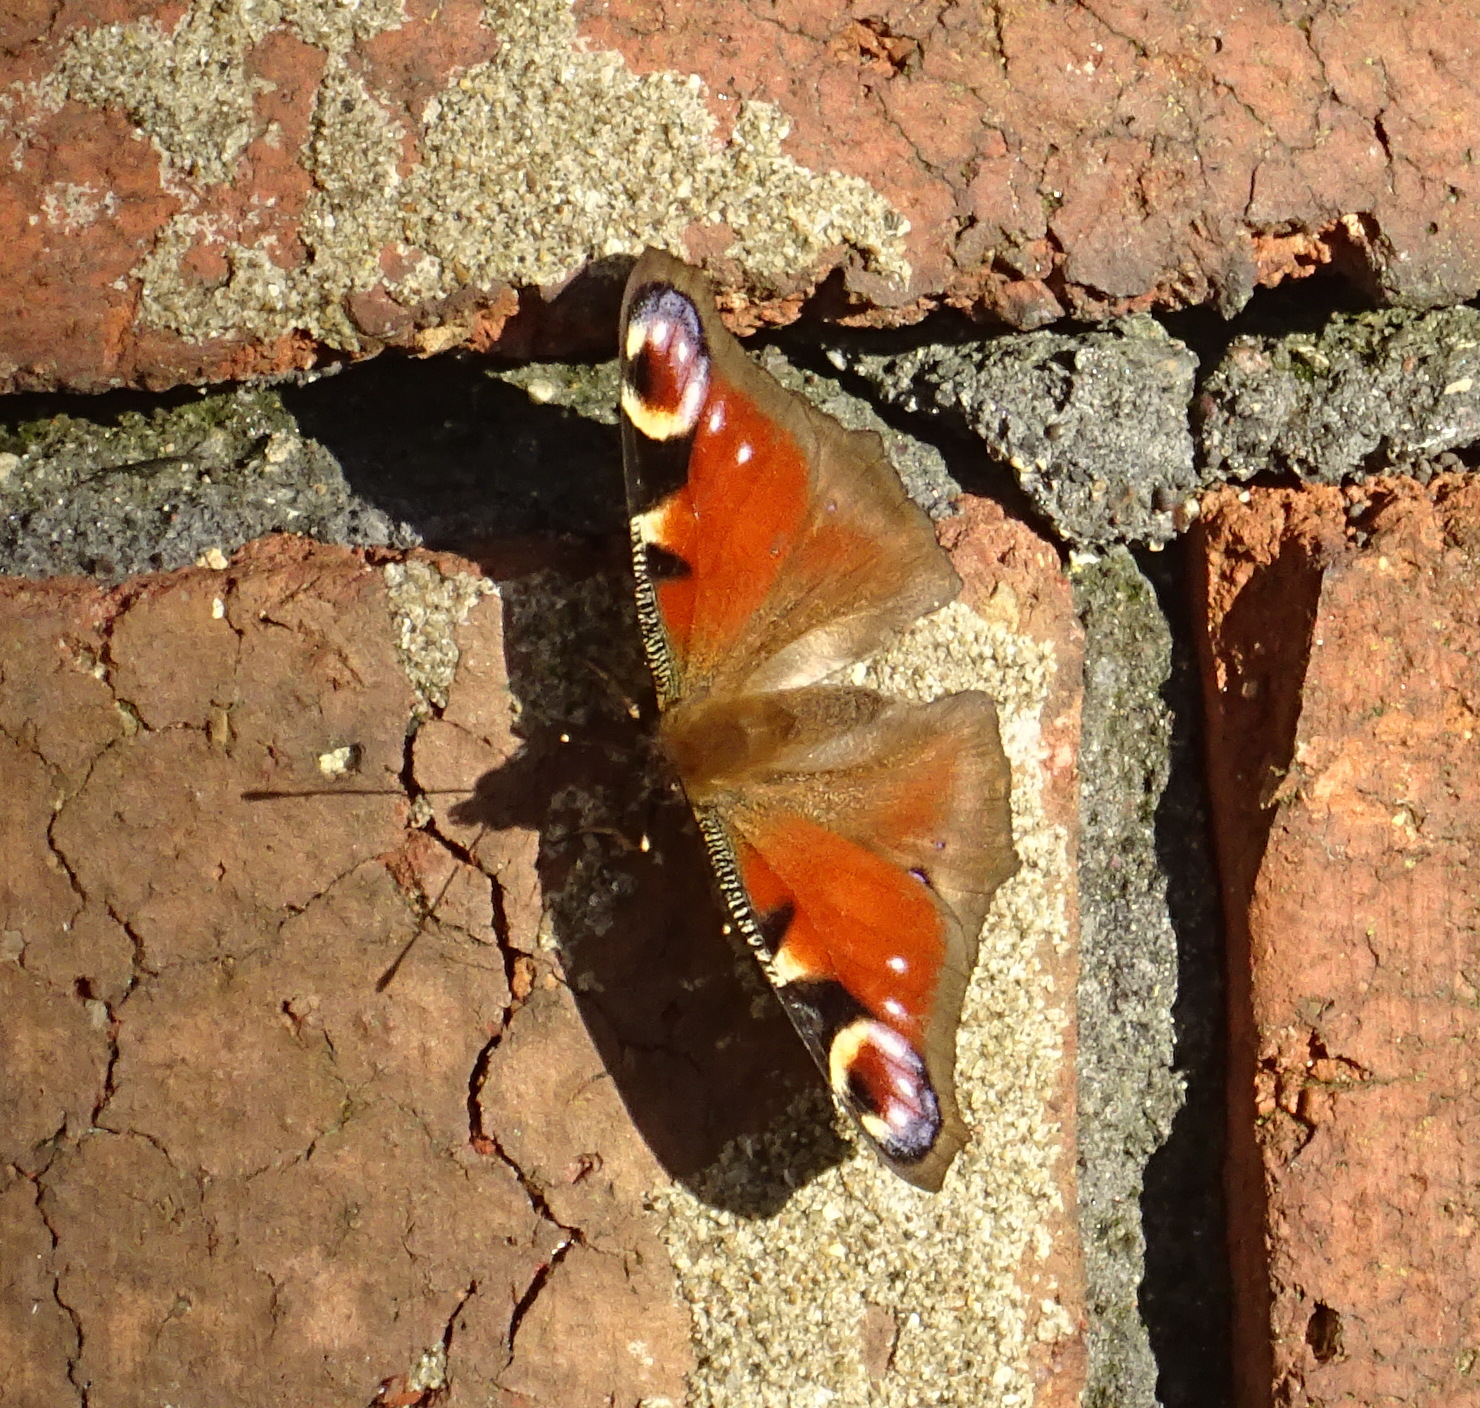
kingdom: Animalia
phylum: Arthropoda
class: Insecta
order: Lepidoptera
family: Nymphalidae
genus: Aglais
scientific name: Aglais io
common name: Peacock
